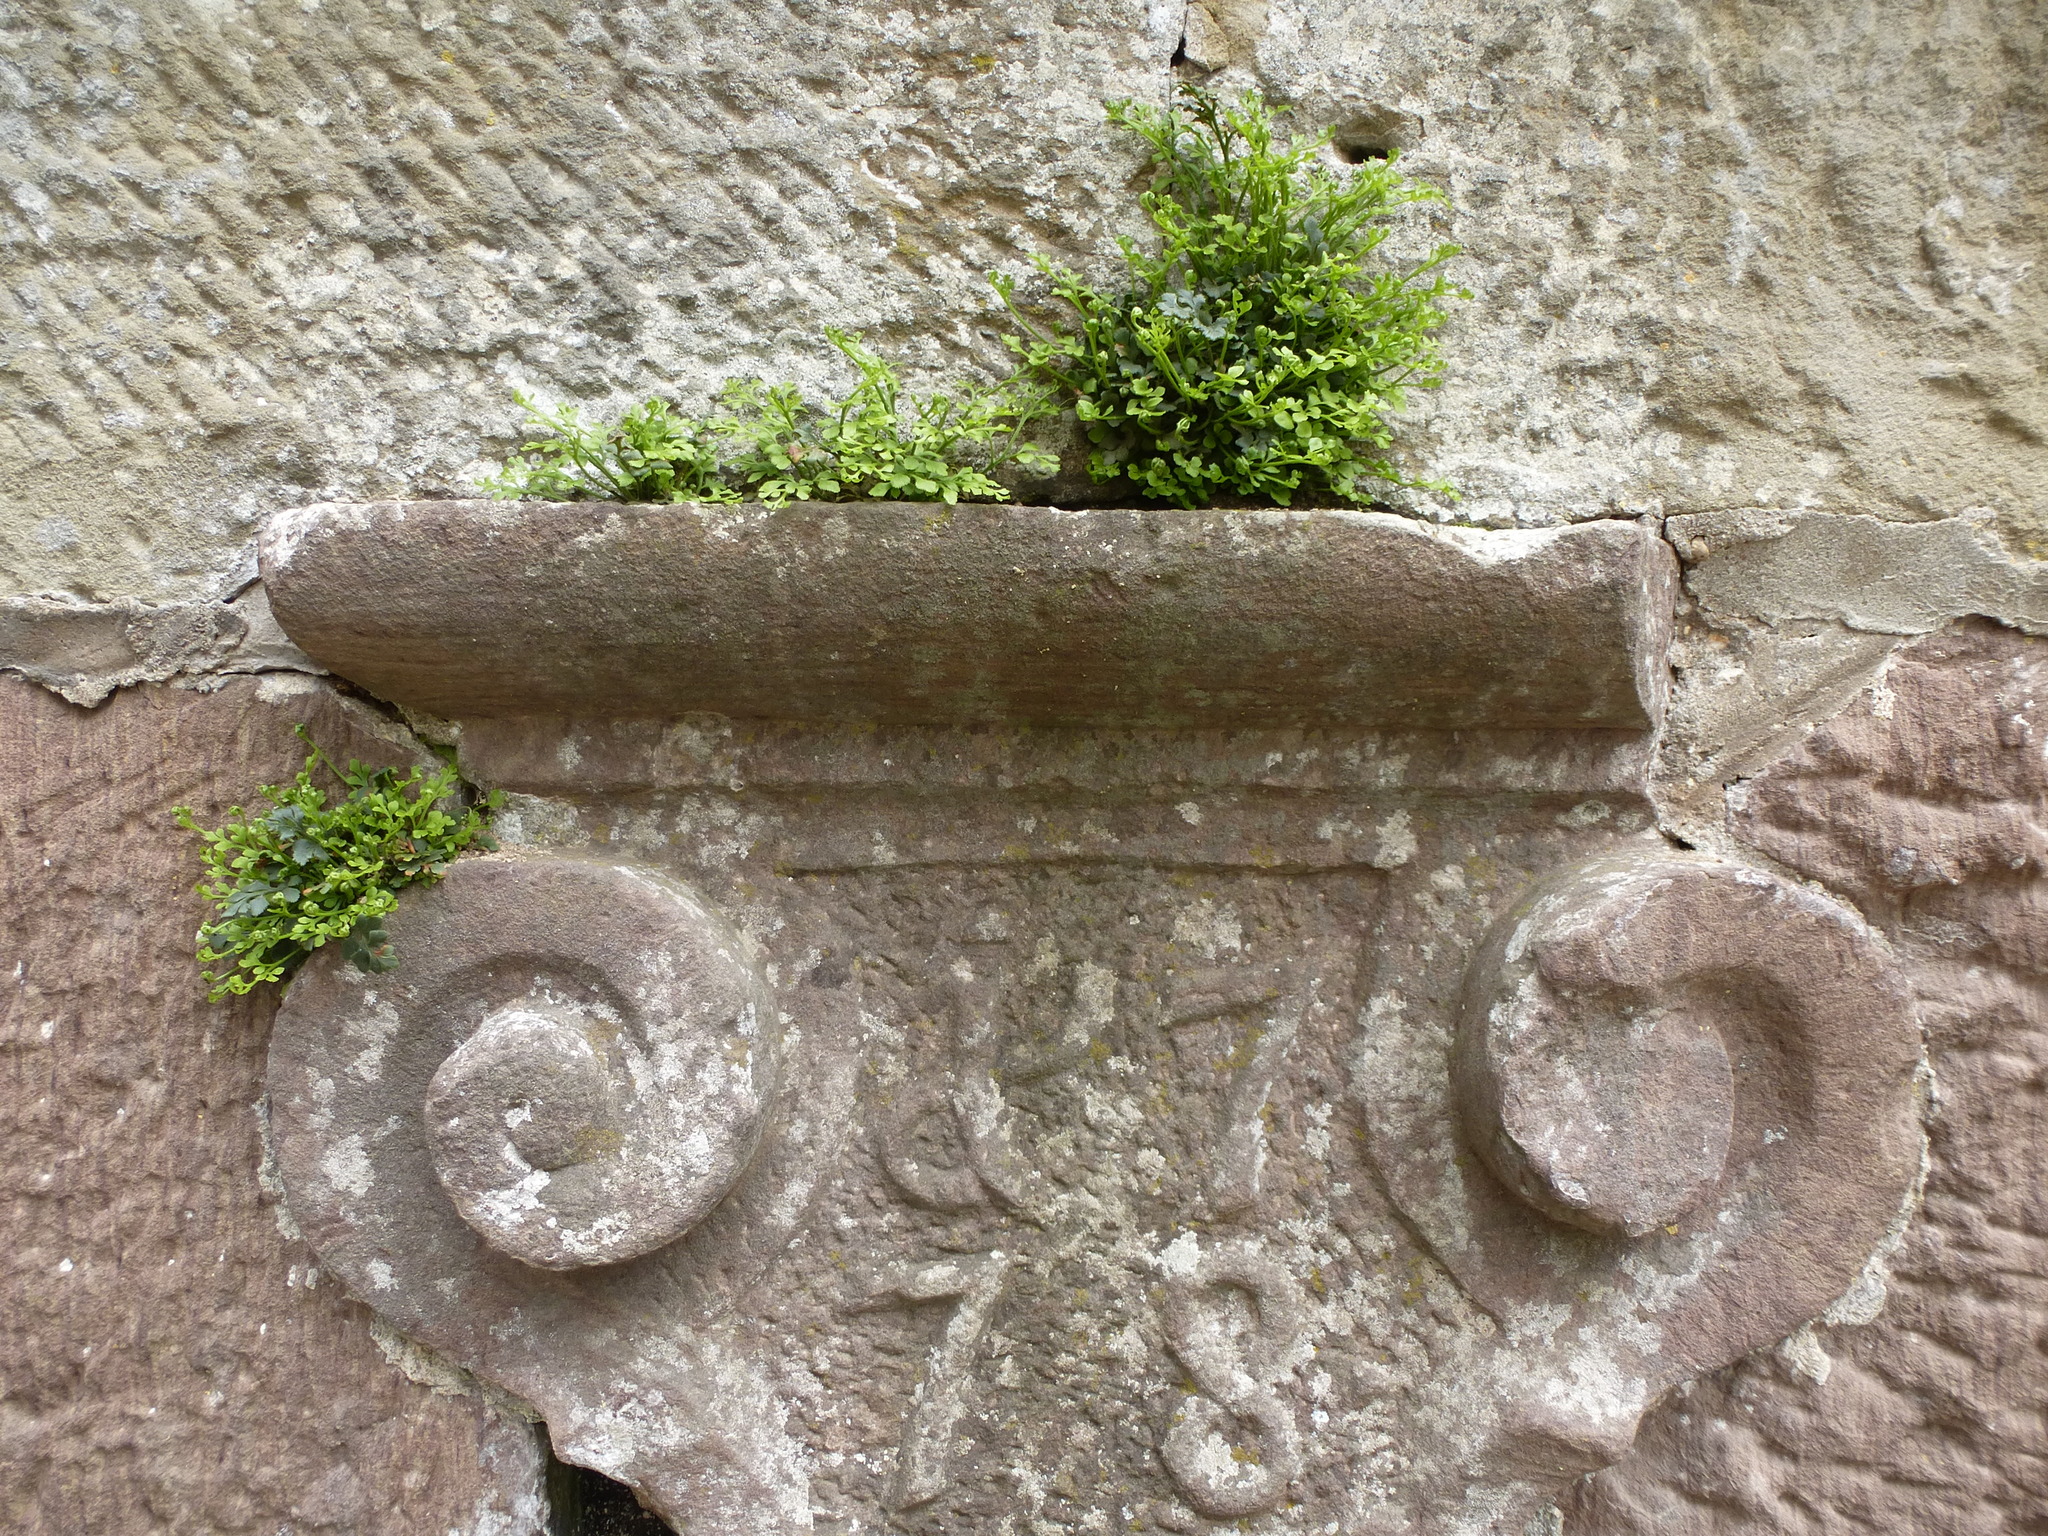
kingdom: Plantae
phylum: Tracheophyta
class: Polypodiopsida
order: Polypodiales
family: Aspleniaceae
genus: Asplenium
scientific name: Asplenium ruta-muraria
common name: Wall-rue
